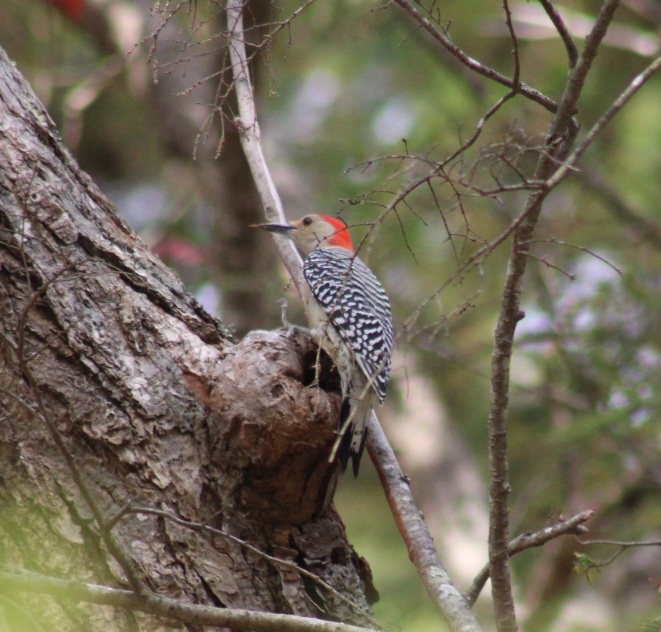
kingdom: Animalia
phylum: Chordata
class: Aves
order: Piciformes
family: Picidae
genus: Melanerpes
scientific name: Melanerpes carolinus
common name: Red-bellied woodpecker
